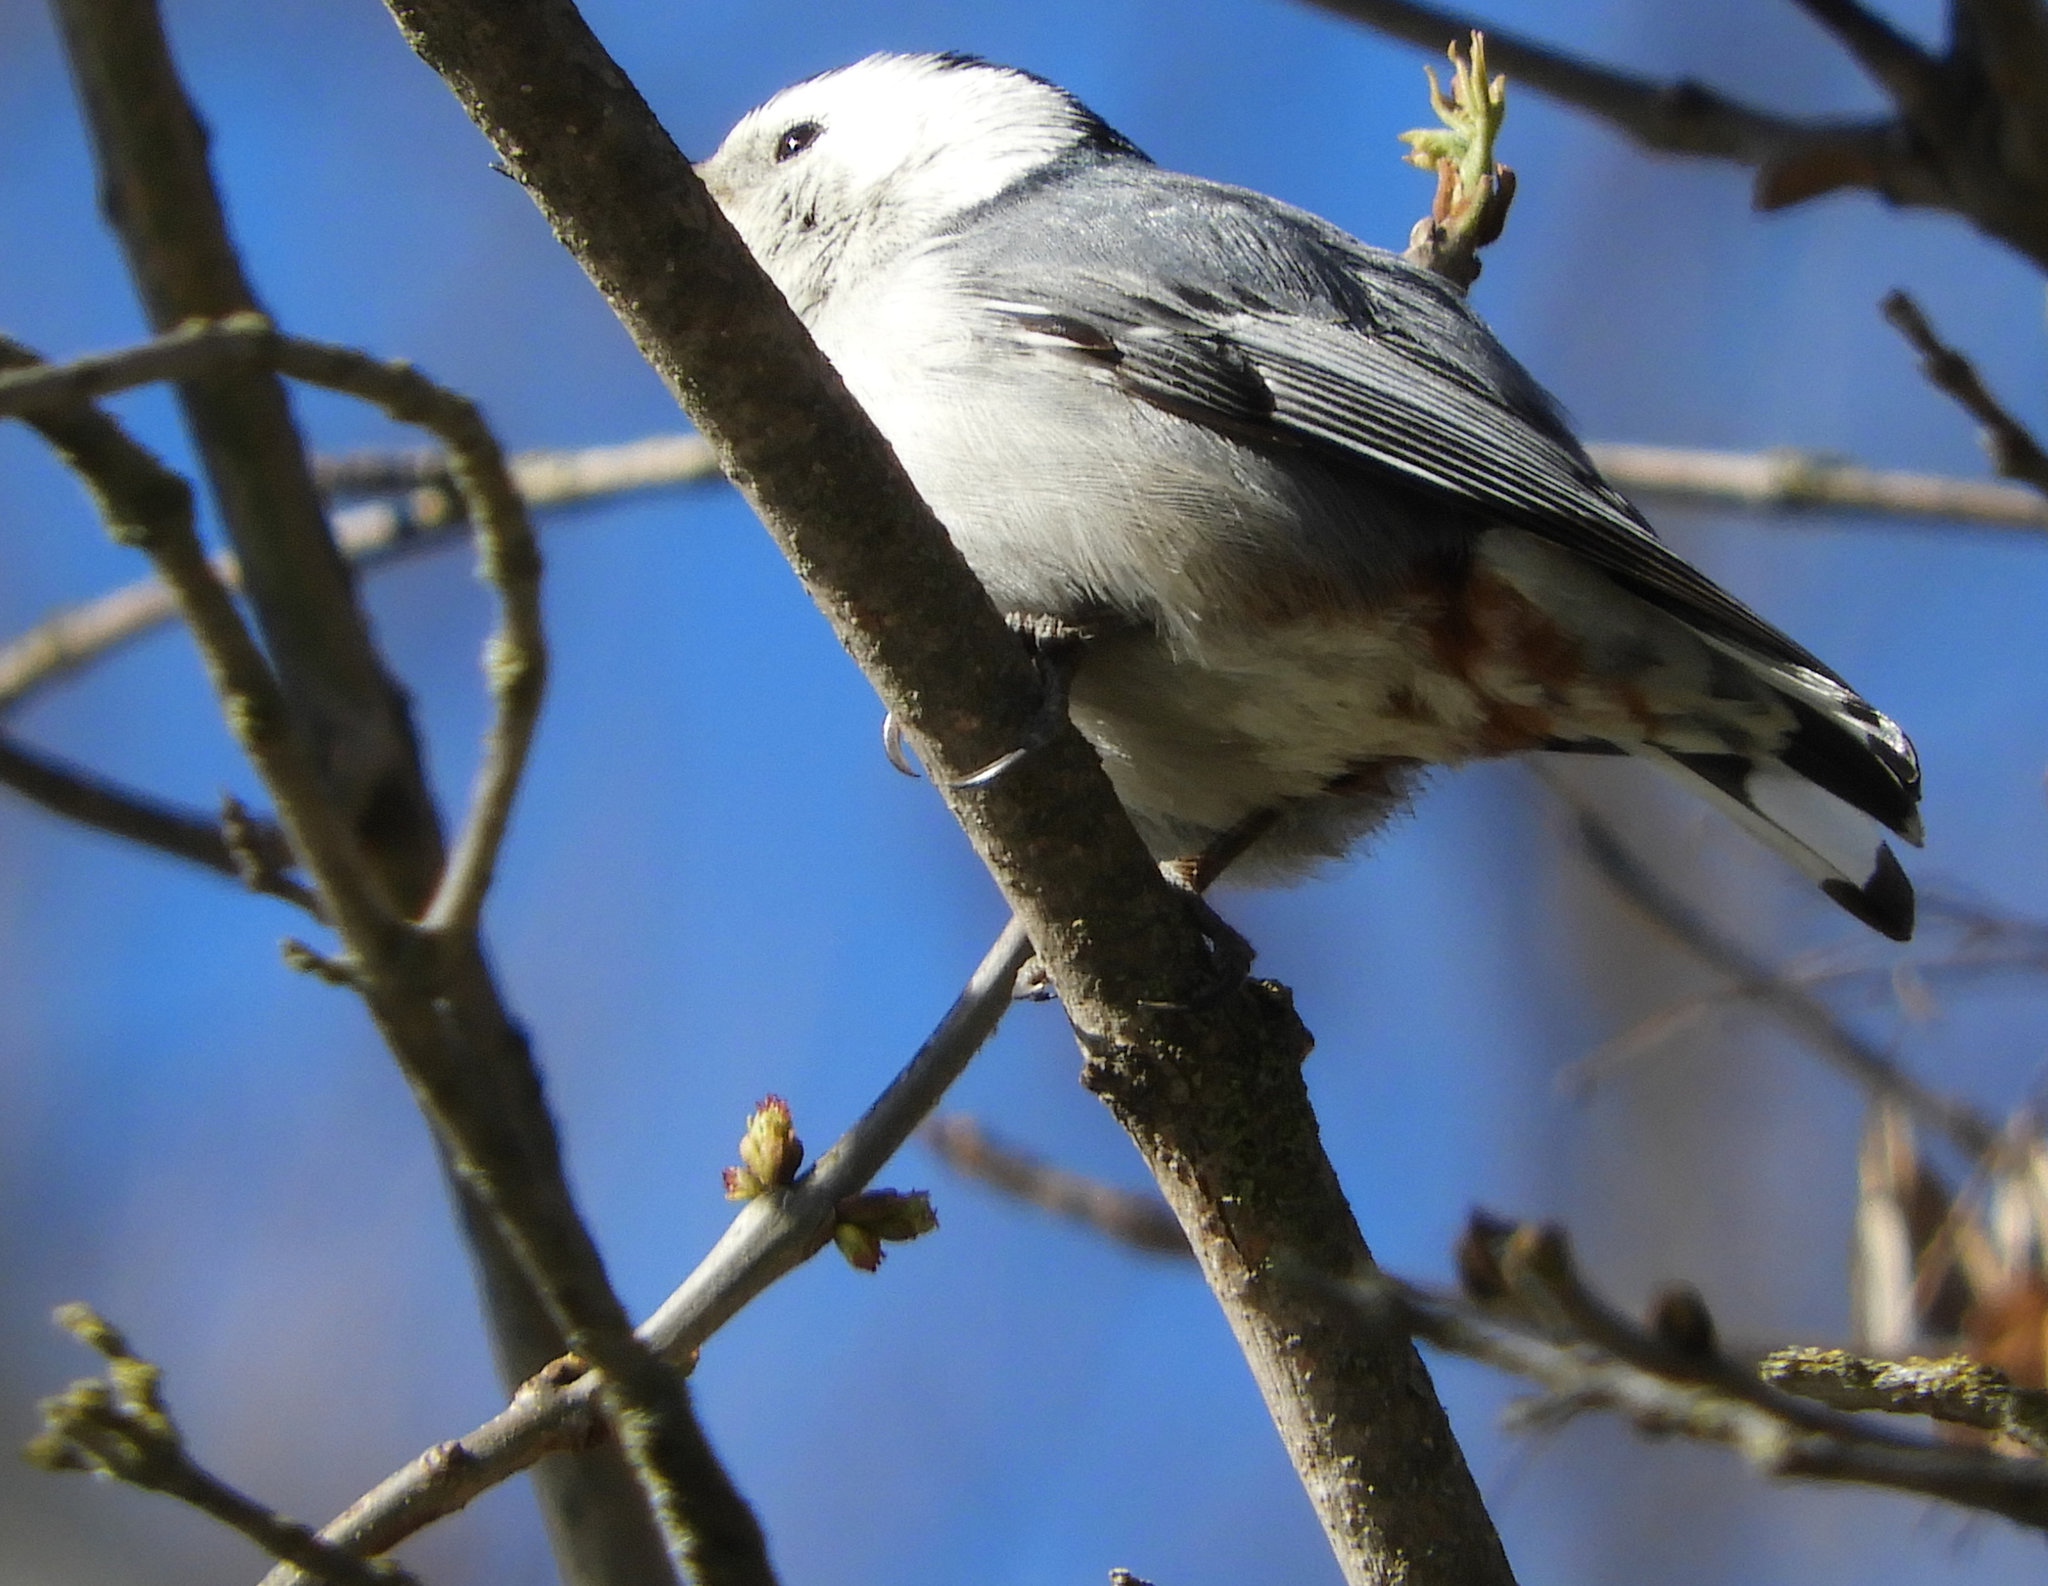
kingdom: Animalia
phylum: Chordata
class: Aves
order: Passeriformes
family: Sittidae
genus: Sitta
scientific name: Sitta carolinensis
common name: White-breasted nuthatch
